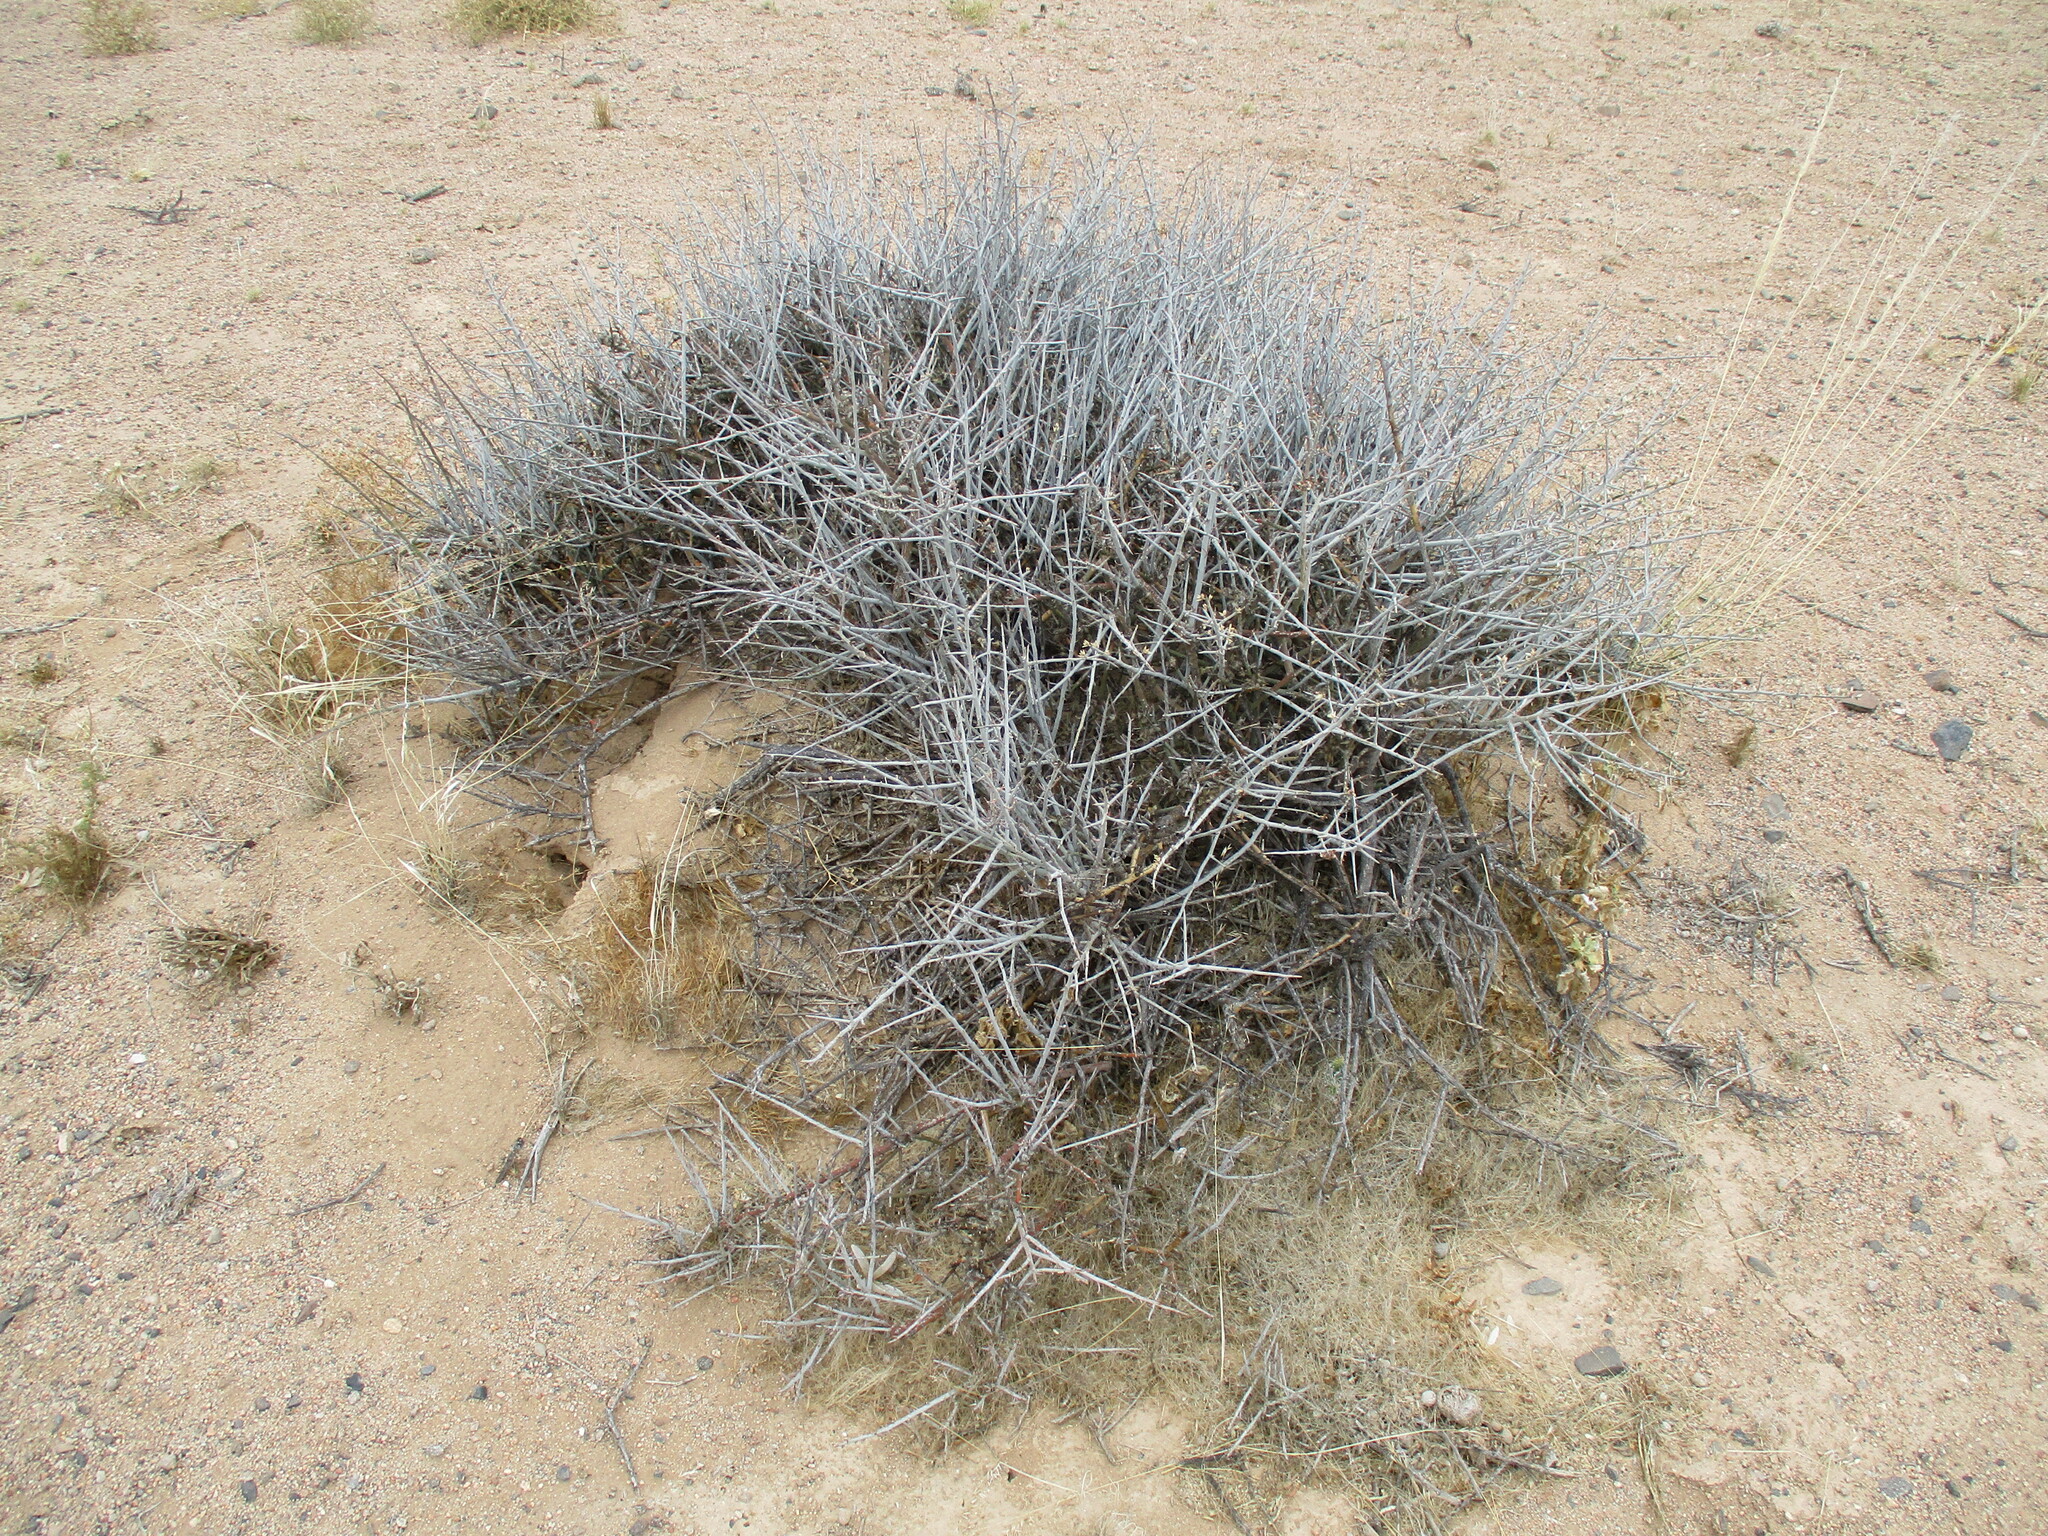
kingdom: Plantae
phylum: Tracheophyta
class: Magnoliopsida
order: Caryophyllales
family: Amaranthaceae
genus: Calicorema
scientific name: Calicorema capitata
